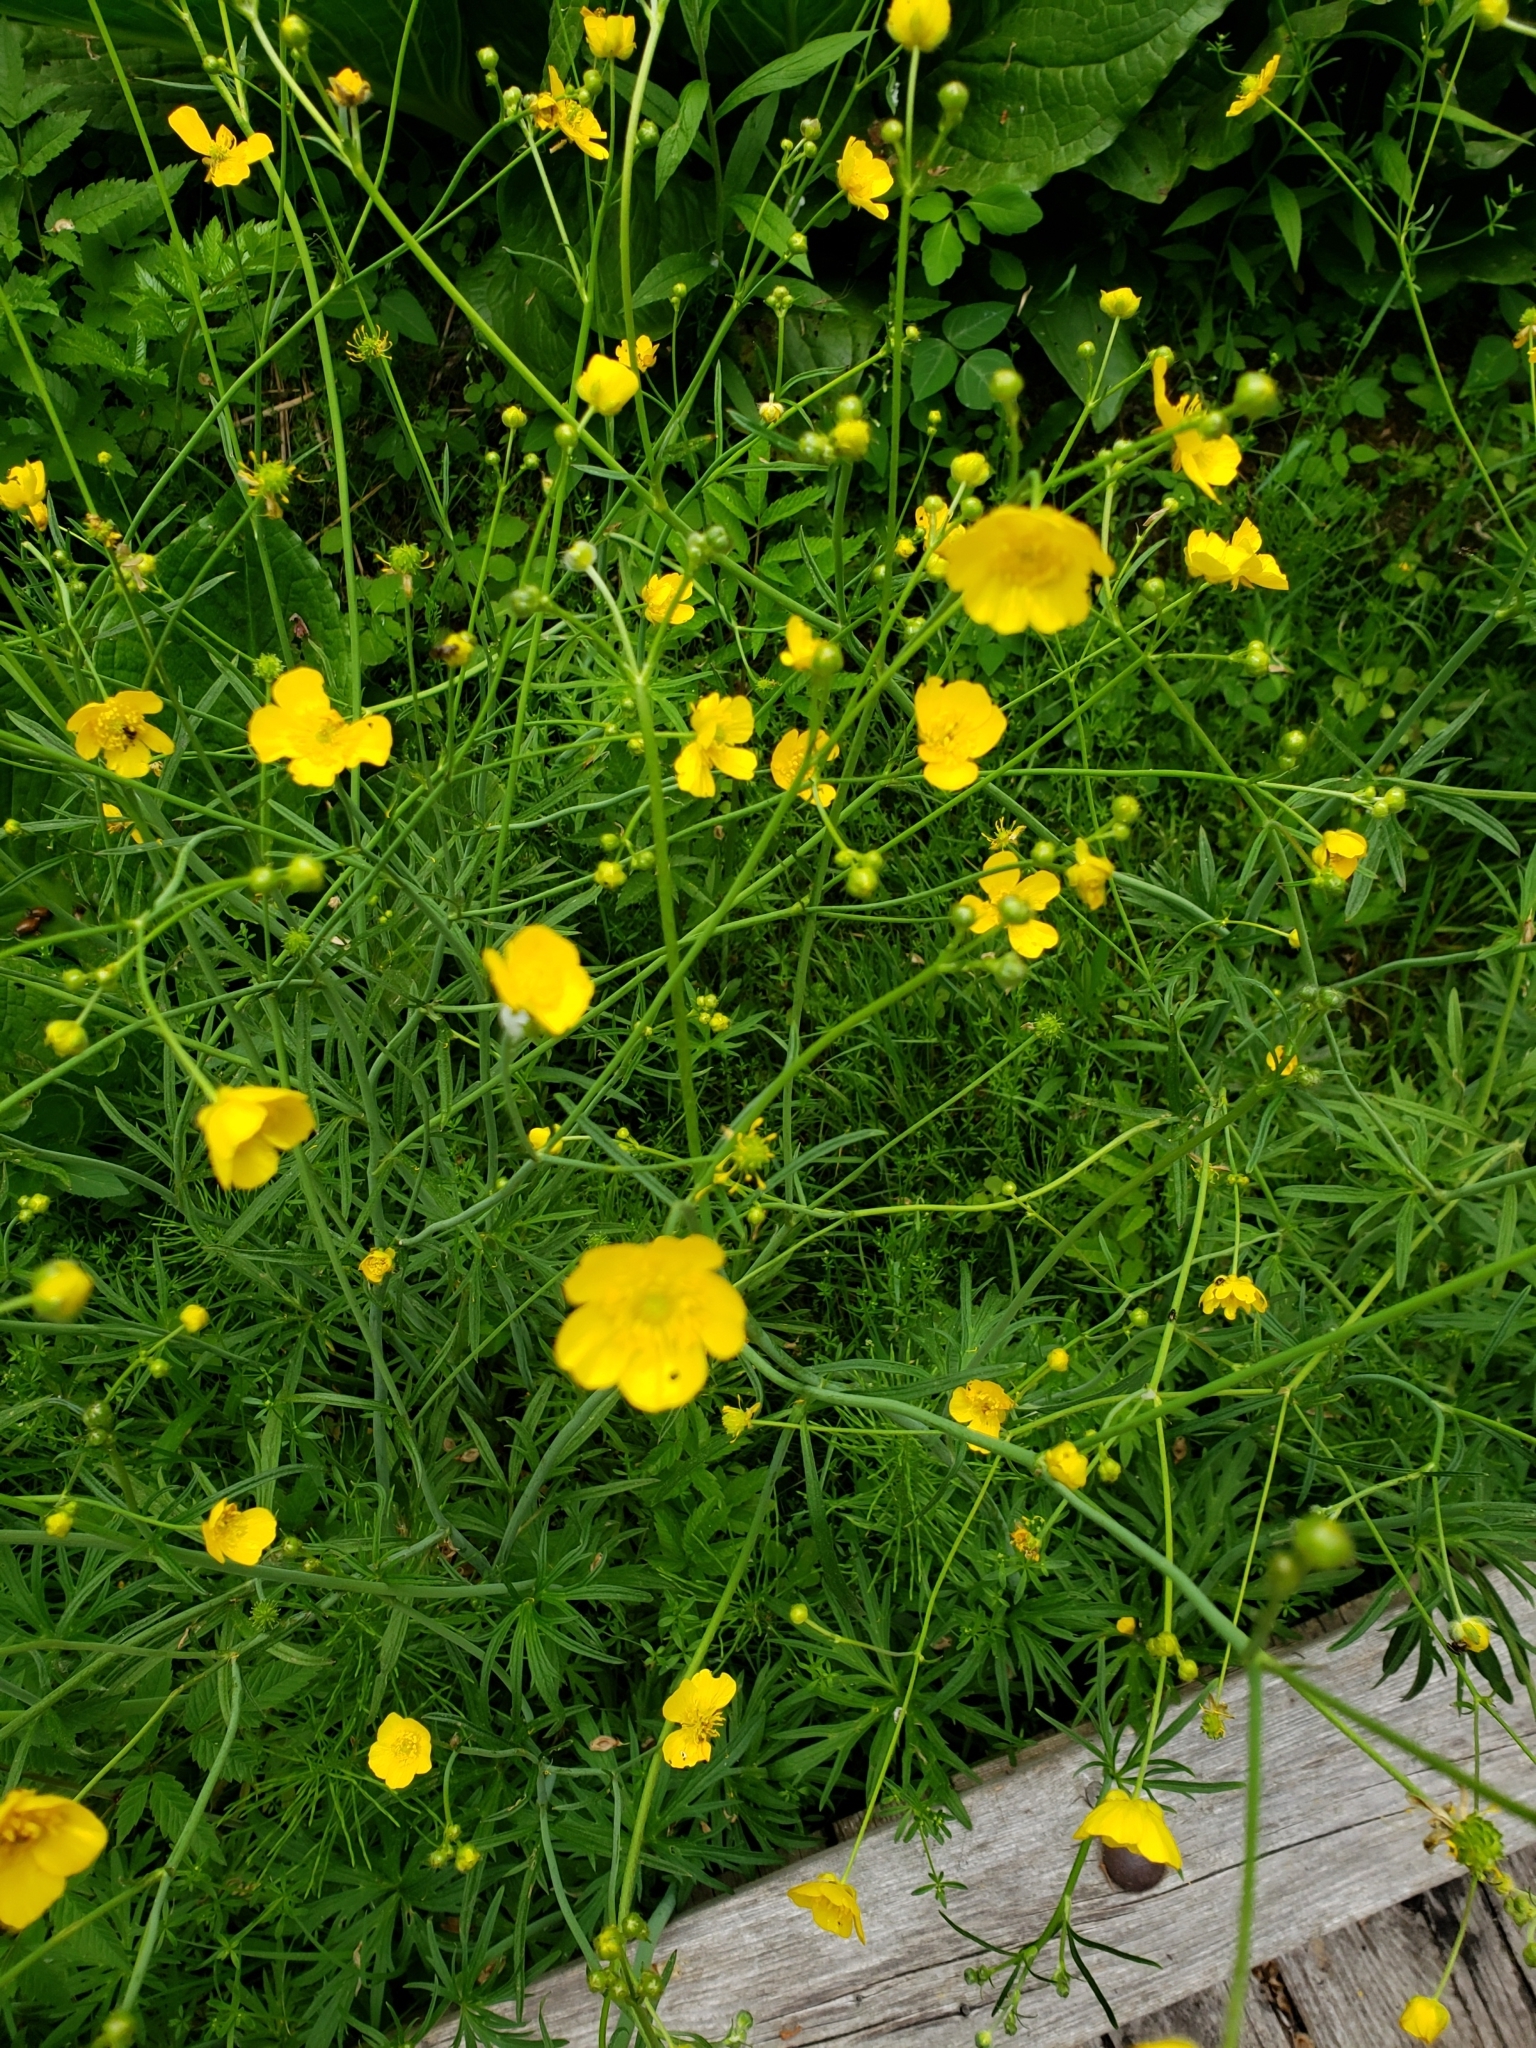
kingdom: Plantae
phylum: Tracheophyta
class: Magnoliopsida
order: Ranunculales
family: Ranunculaceae
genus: Ranunculus
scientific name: Ranunculus acris
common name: Meadow buttercup
